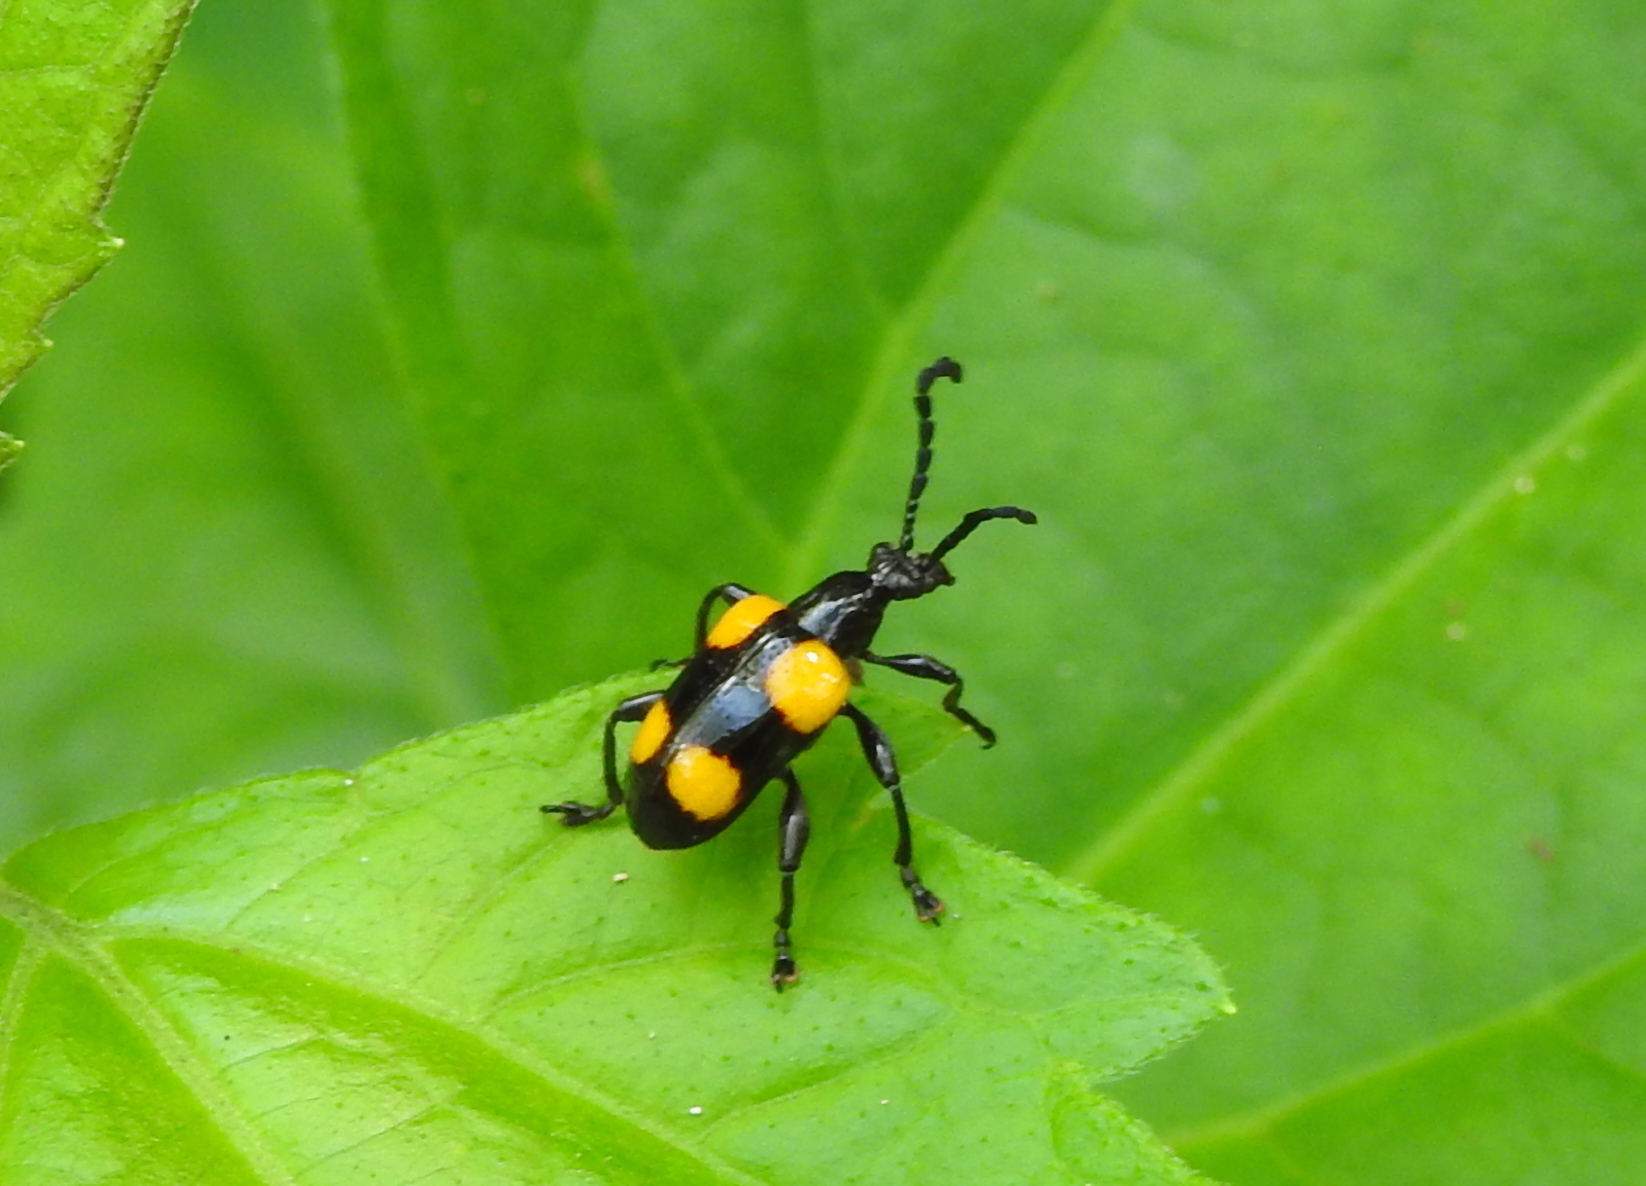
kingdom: Animalia
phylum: Arthropoda
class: Insecta
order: Coleoptera
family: Chrysomelidae
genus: Lilioceris
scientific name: Lilioceris
